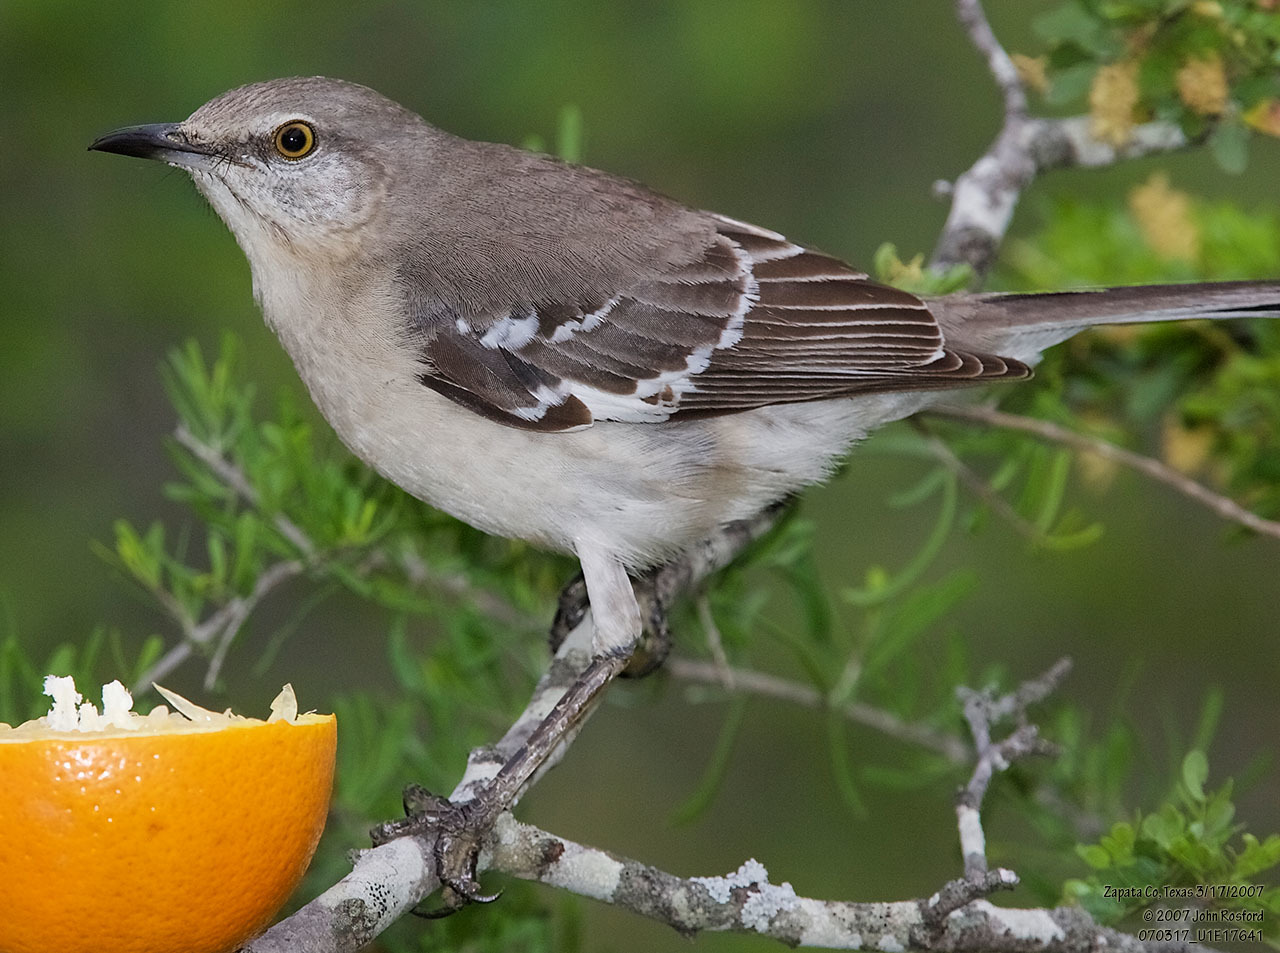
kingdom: Animalia
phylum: Chordata
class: Aves
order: Passeriformes
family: Mimidae
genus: Mimus
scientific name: Mimus polyglottos
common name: Northern mockingbird
